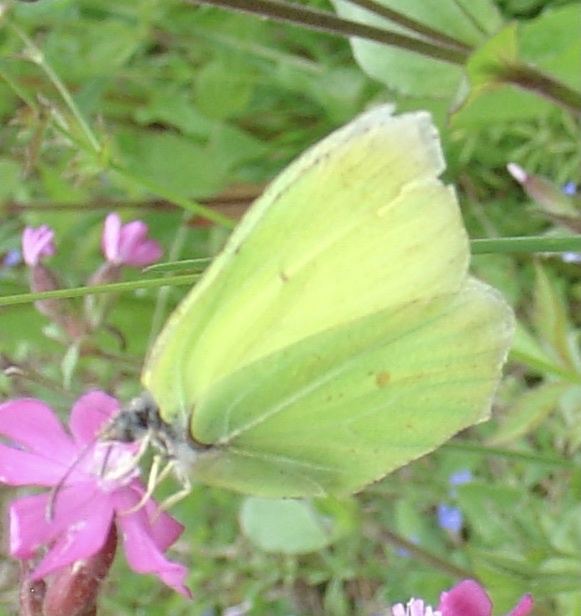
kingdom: Animalia
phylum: Arthropoda
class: Insecta
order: Lepidoptera
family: Pieridae
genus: Gonepteryx
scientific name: Gonepteryx rhamni
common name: Brimstone
